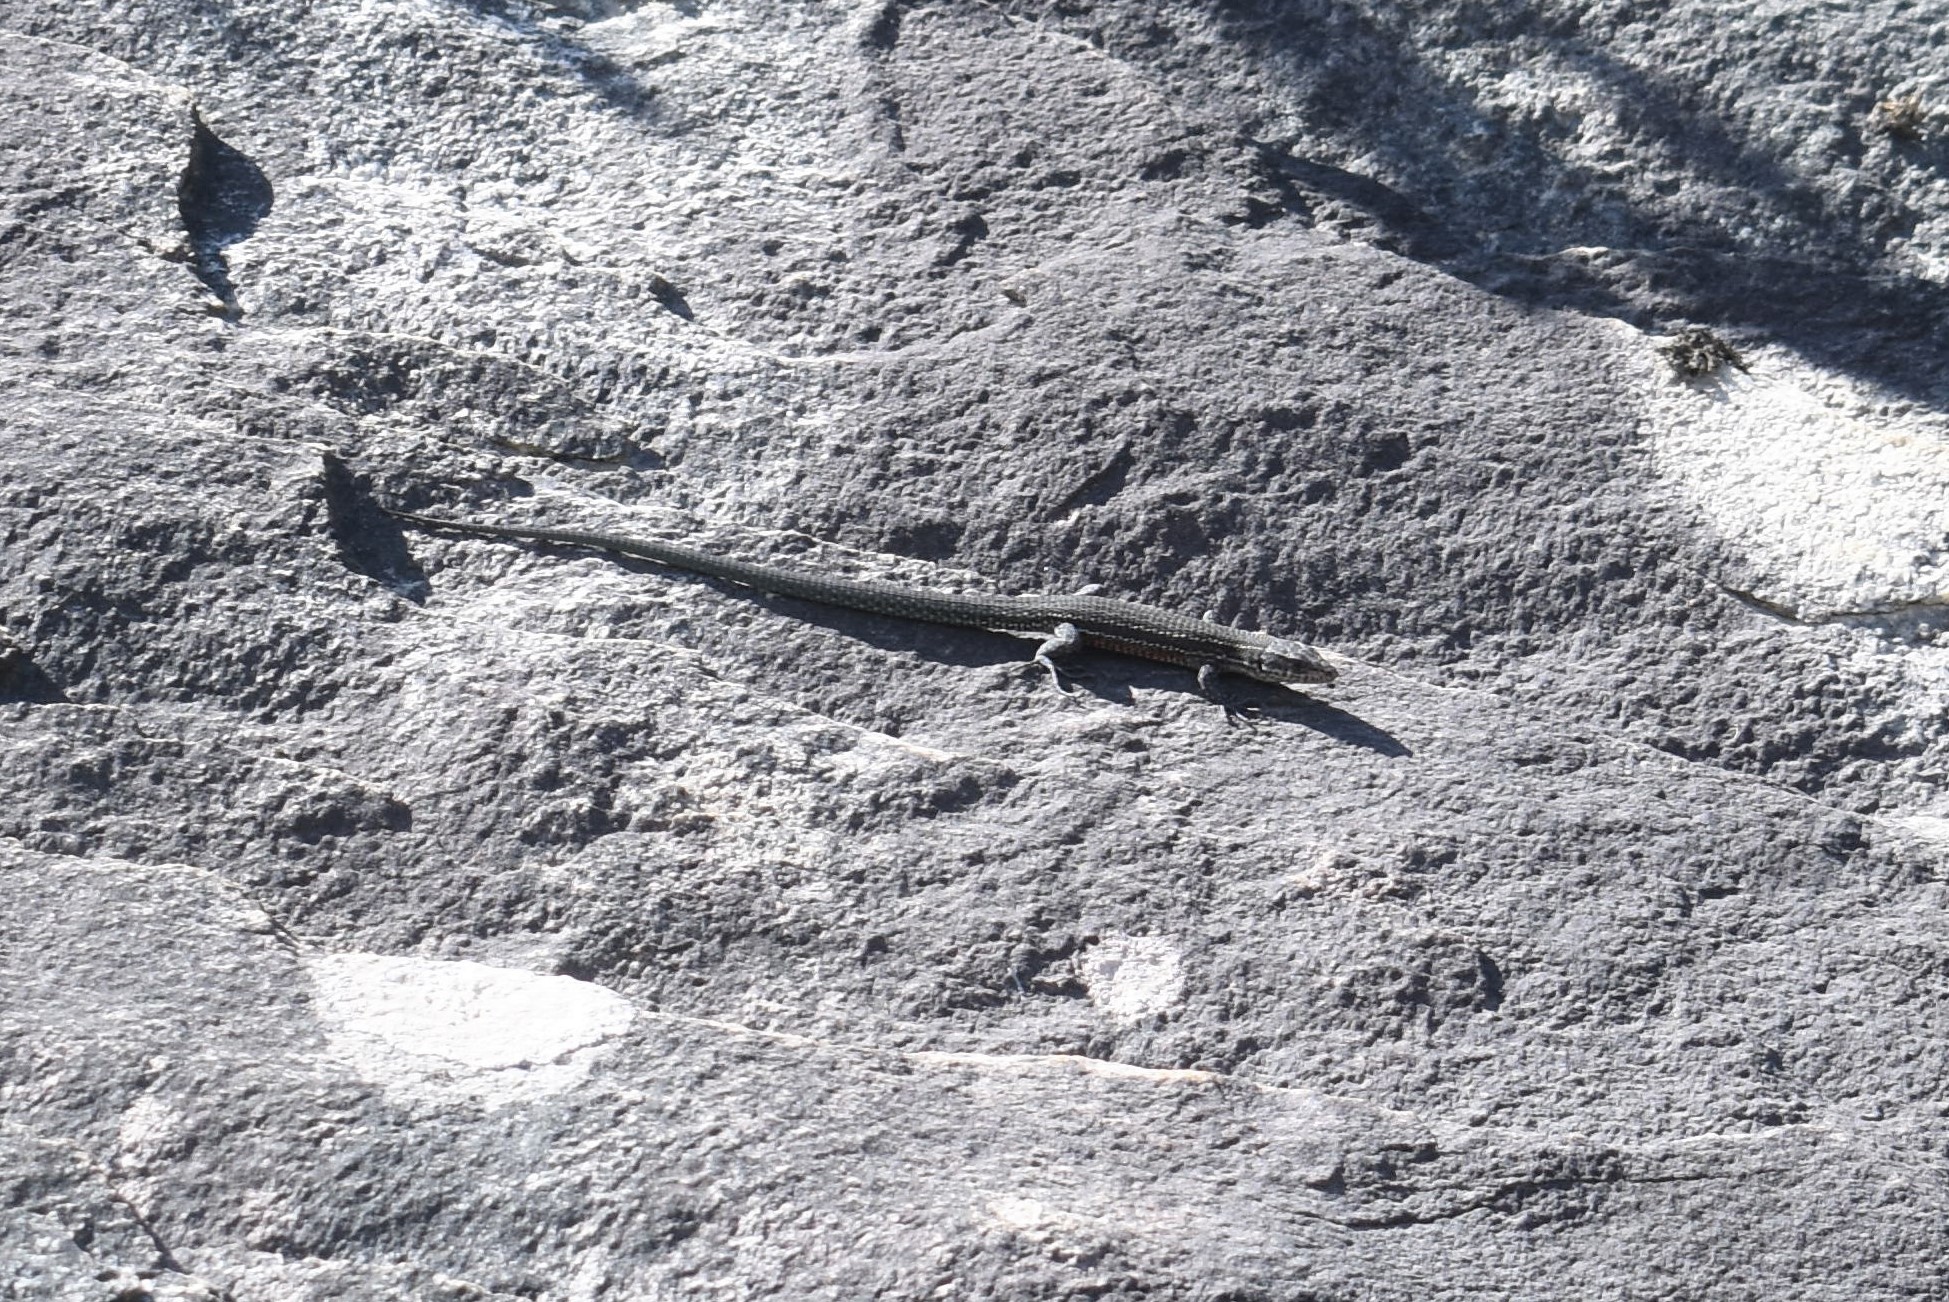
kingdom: Animalia
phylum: Chordata
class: Squamata
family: Lacertidae
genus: Tropidosaura
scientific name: Tropidosaura gularis
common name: Cape mountain lizard
